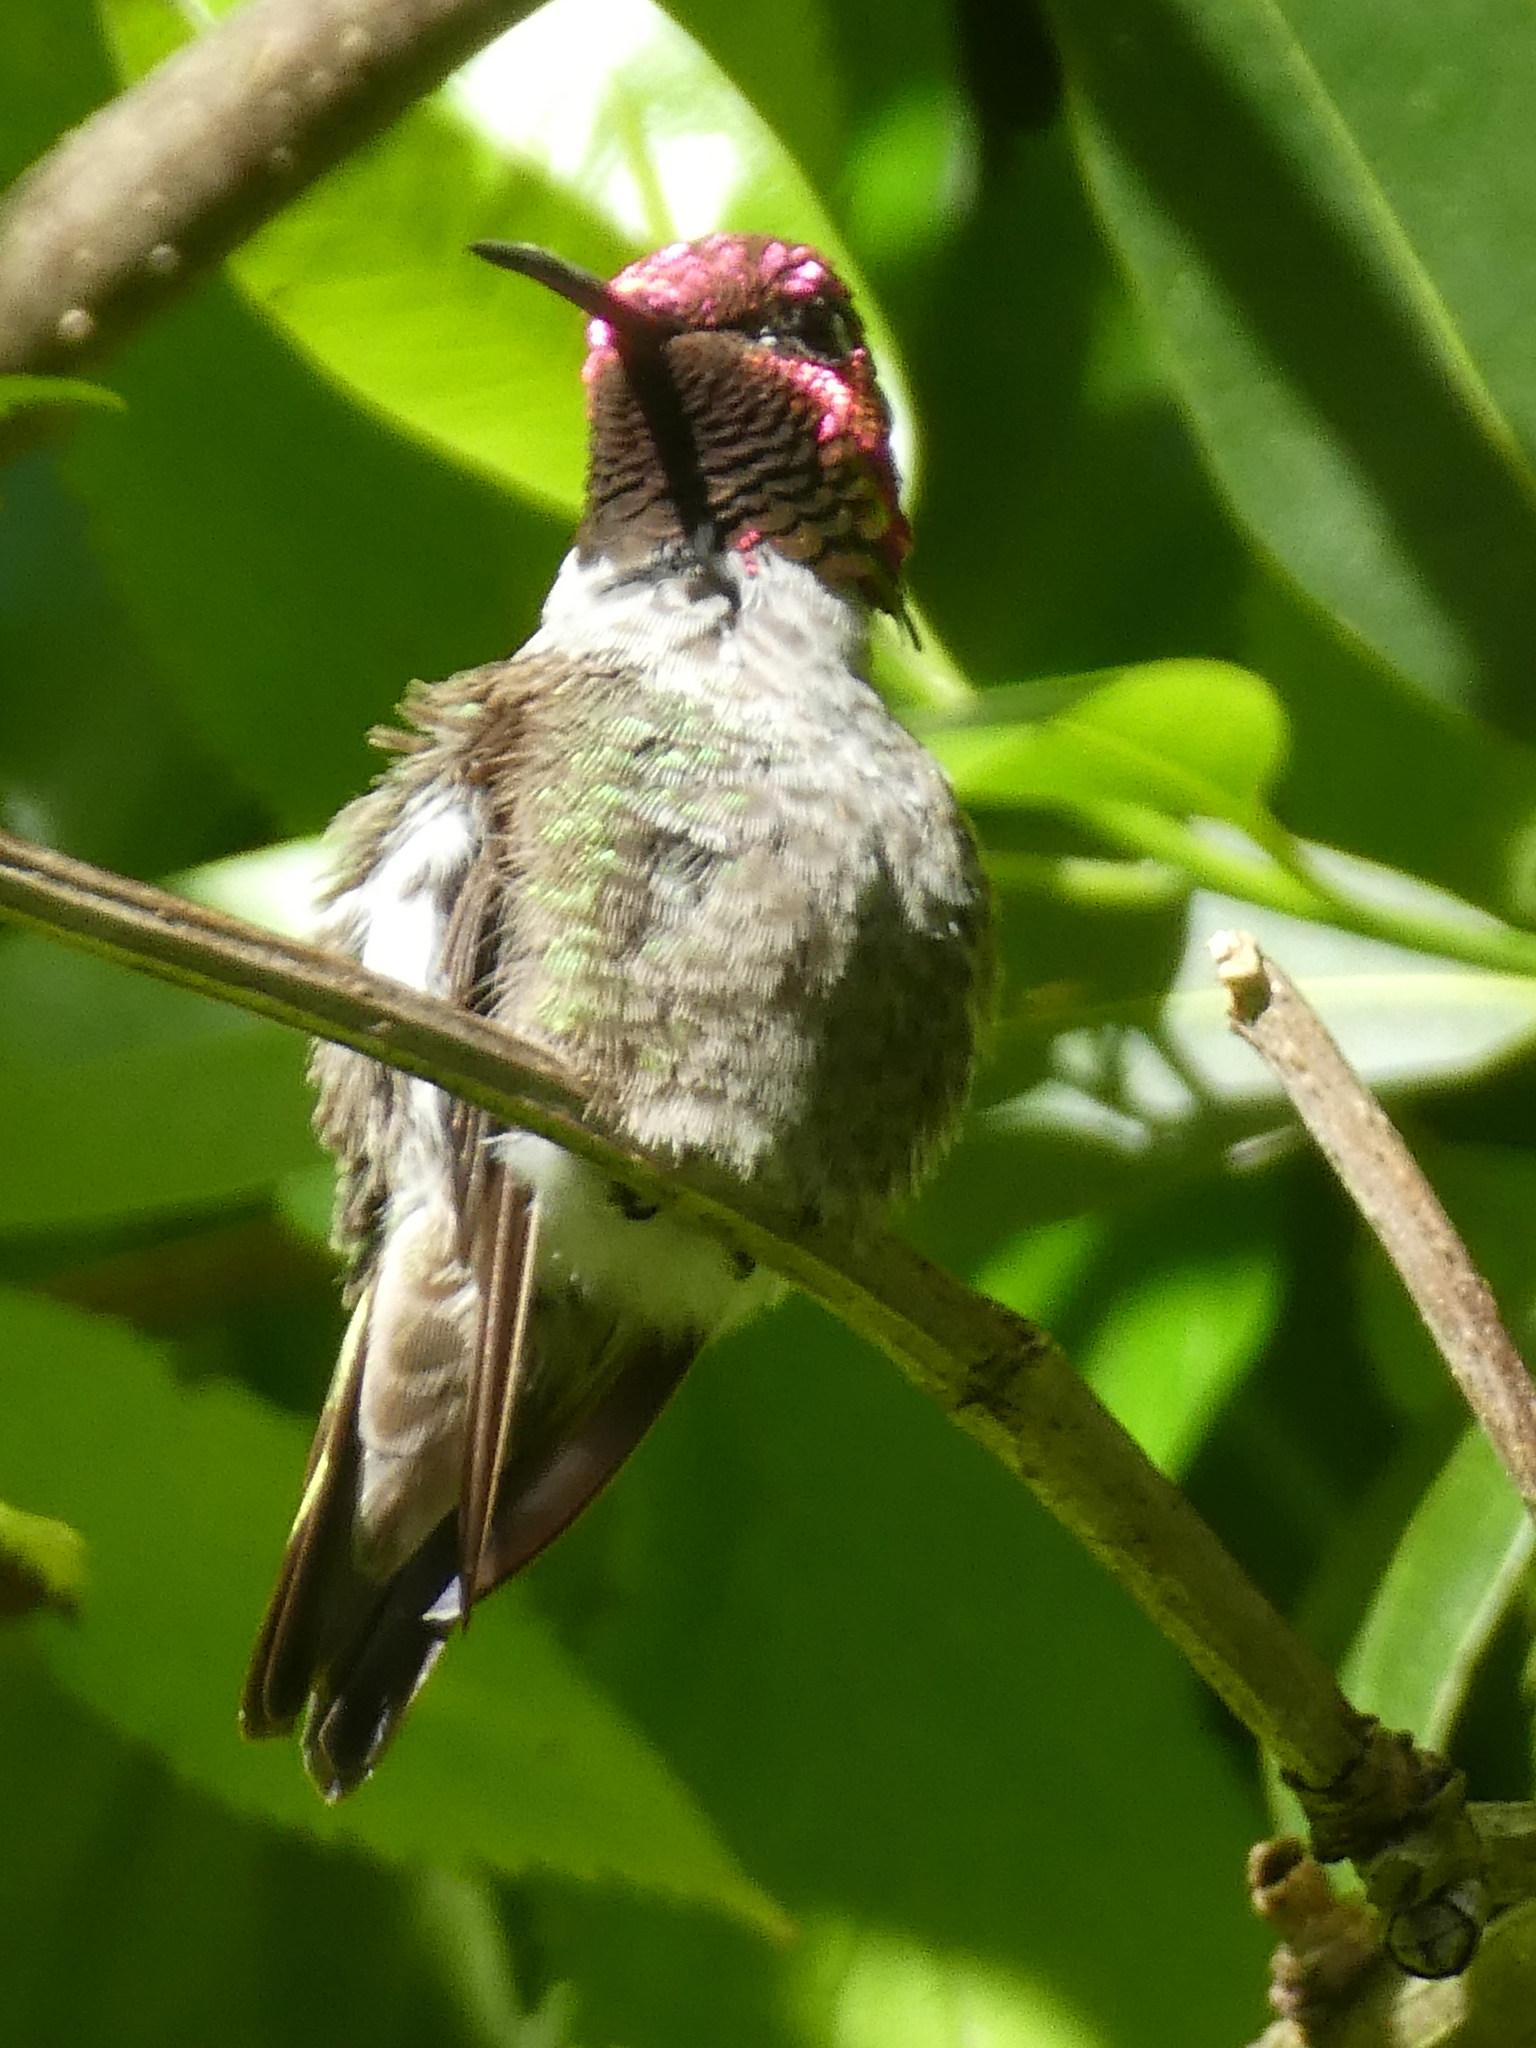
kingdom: Animalia
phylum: Chordata
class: Aves
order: Apodiformes
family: Trochilidae
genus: Calypte
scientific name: Calypte anna
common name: Anna's hummingbird
